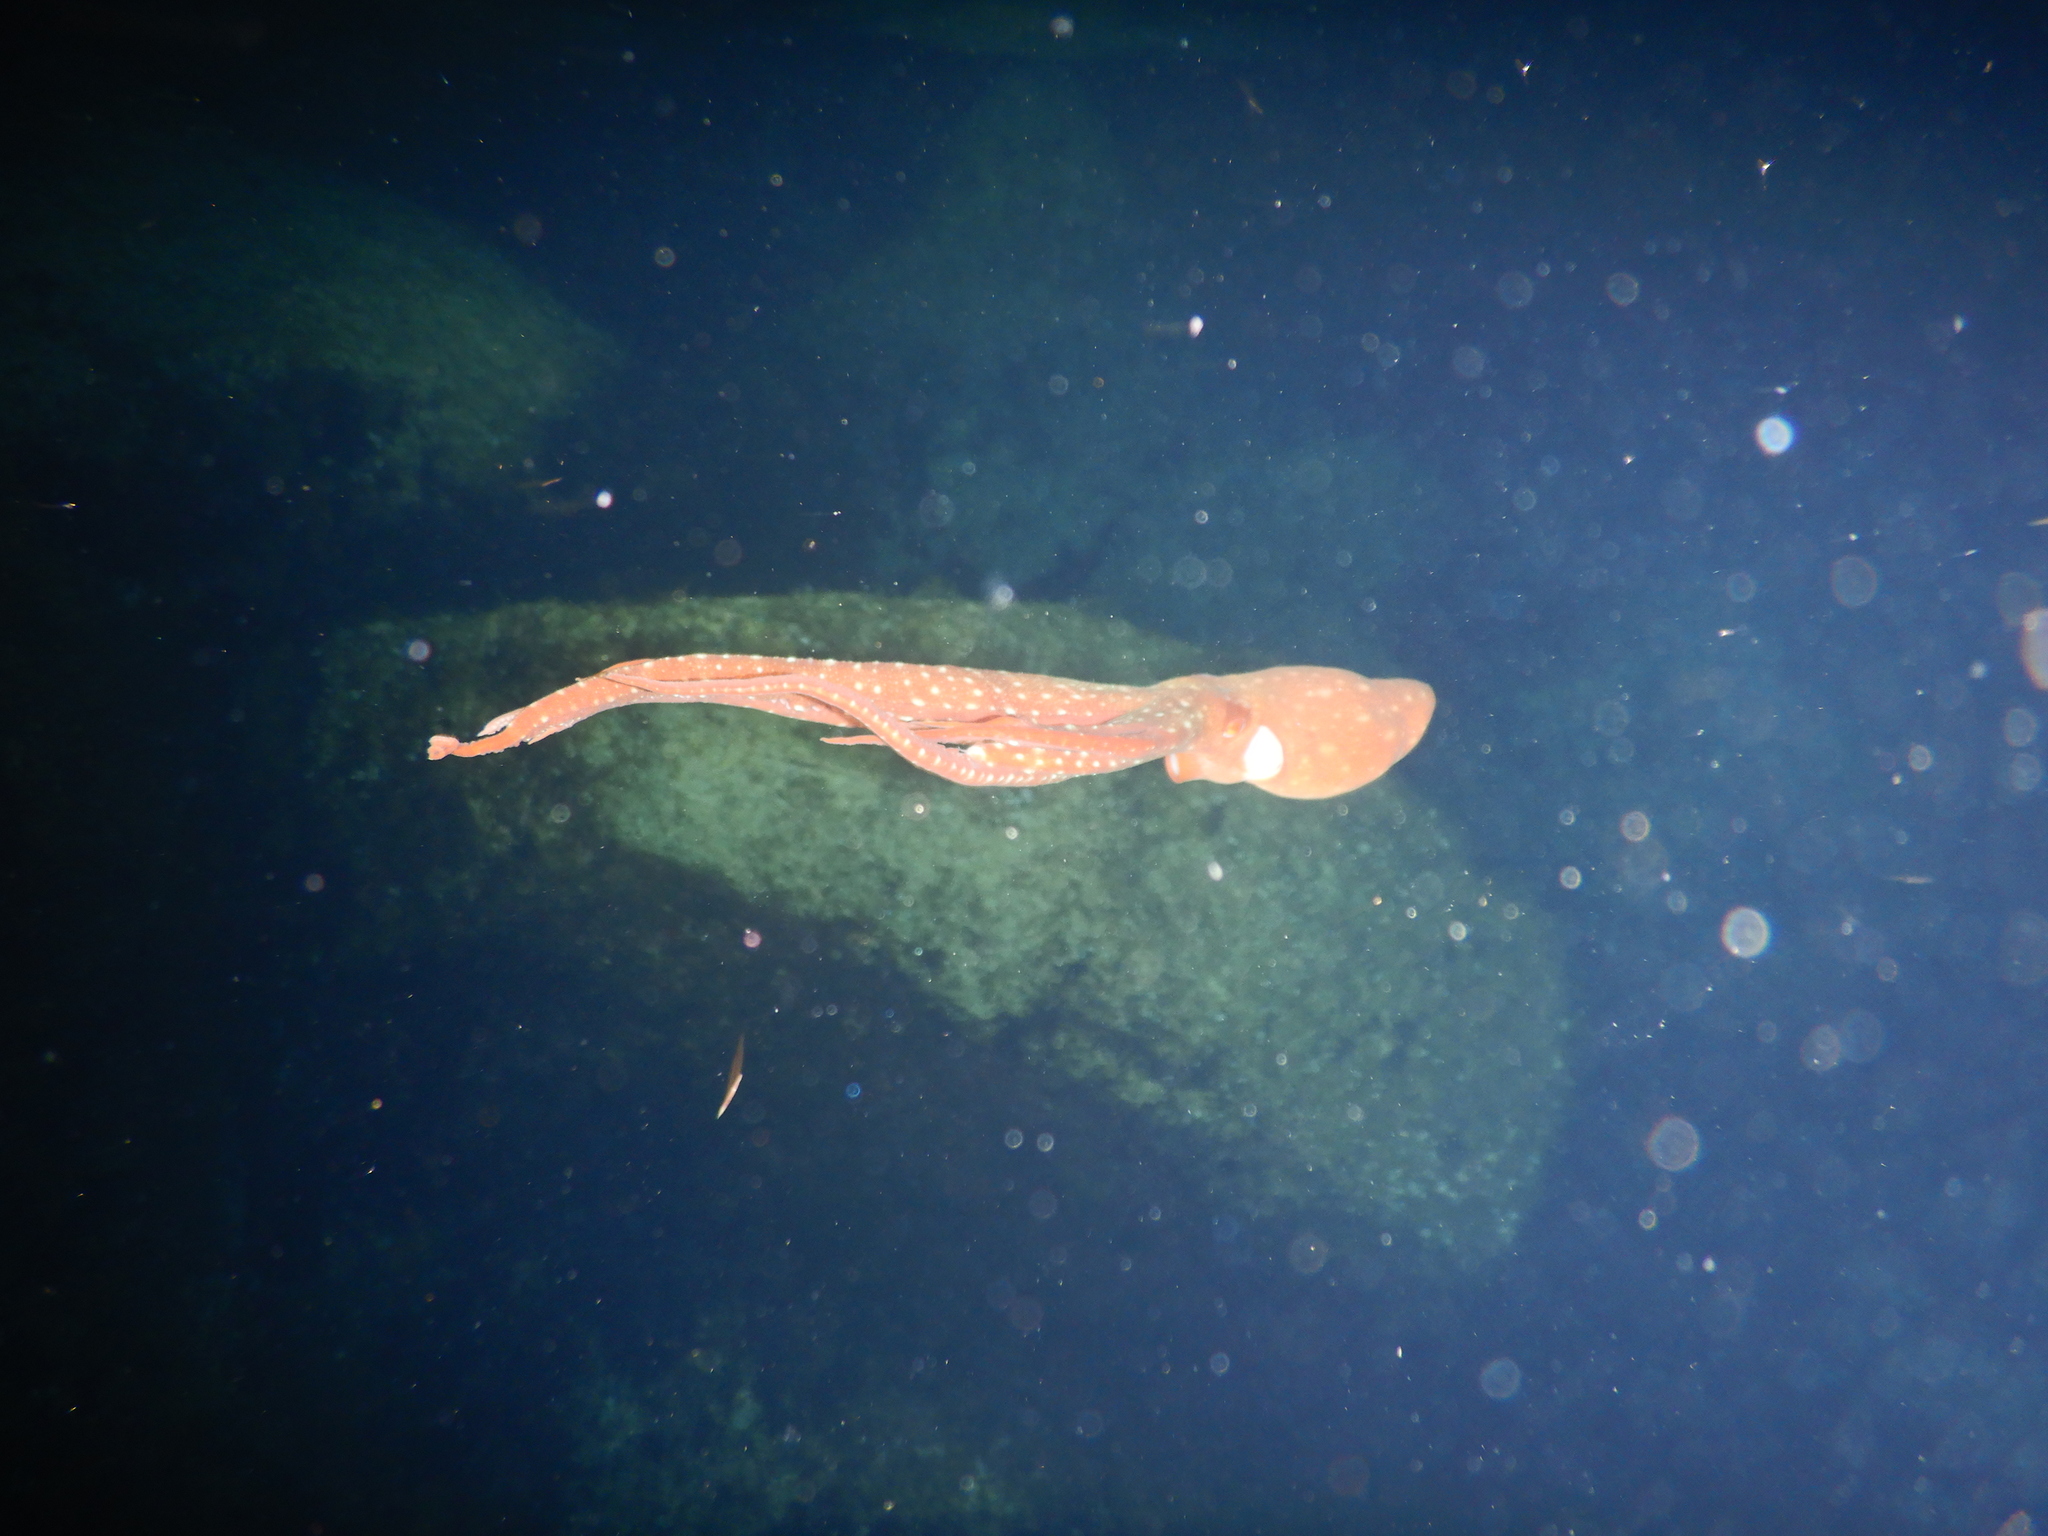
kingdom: Animalia
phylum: Mollusca
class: Cephalopoda
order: Octopoda
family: Octopodidae
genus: Callistoctopus
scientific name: Callistoctopus macropus
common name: Atlantic white-spotted octopus
